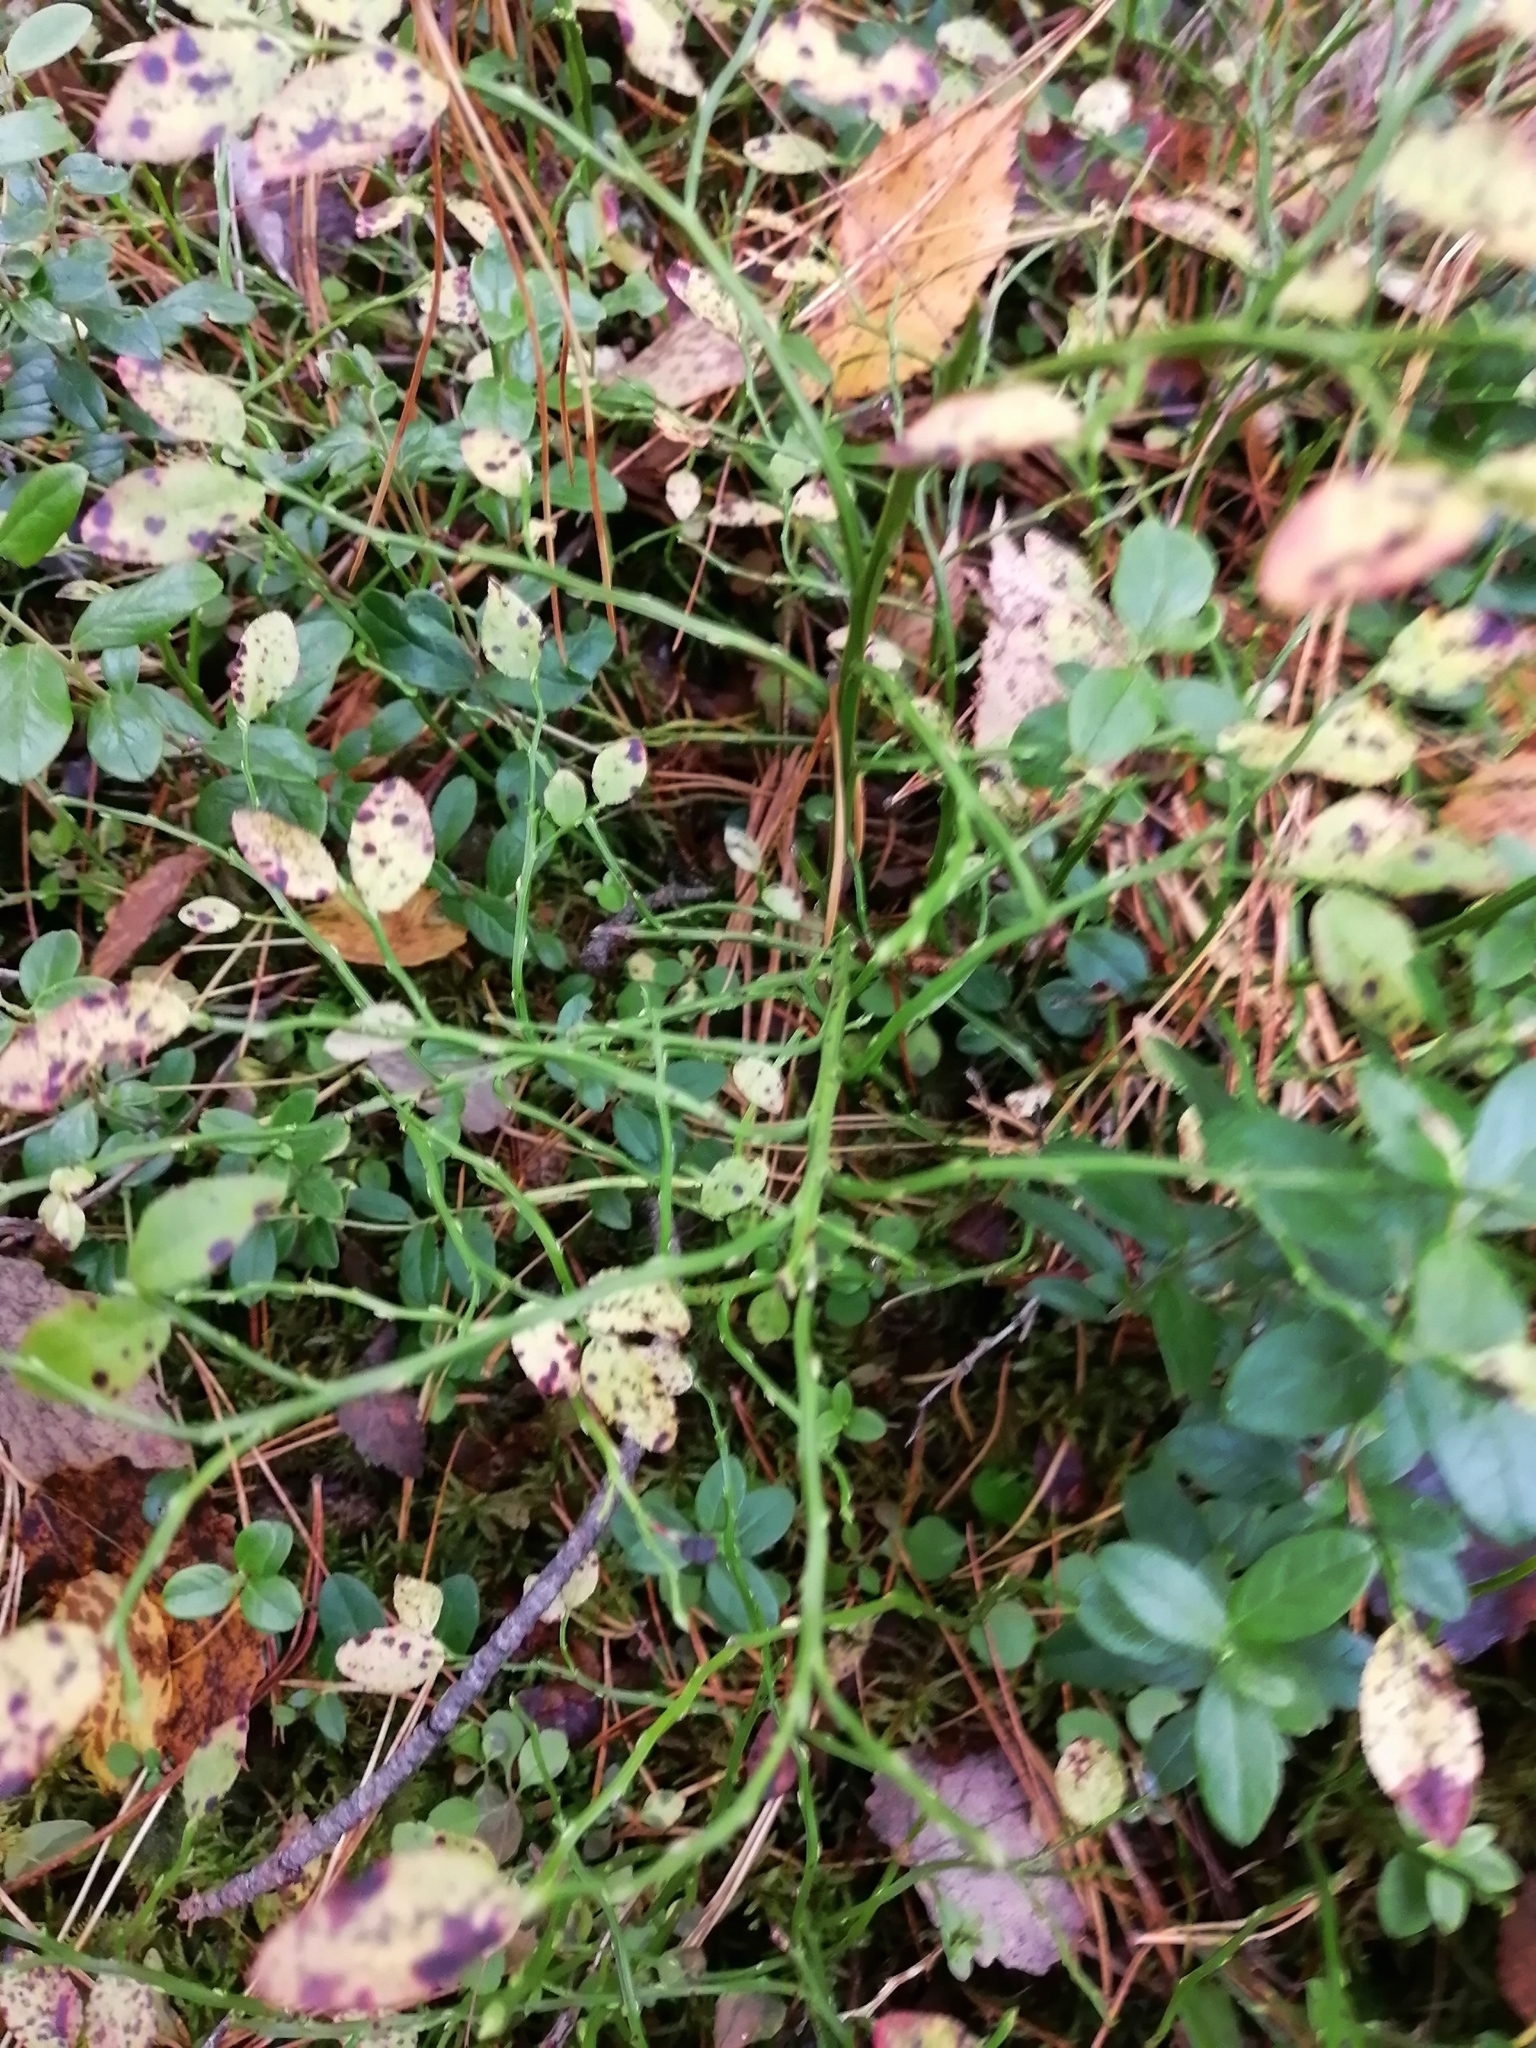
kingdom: Plantae
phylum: Tracheophyta
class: Magnoliopsida
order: Ericales
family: Ericaceae
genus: Vaccinium
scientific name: Vaccinium myrtillus
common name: Bilberry
